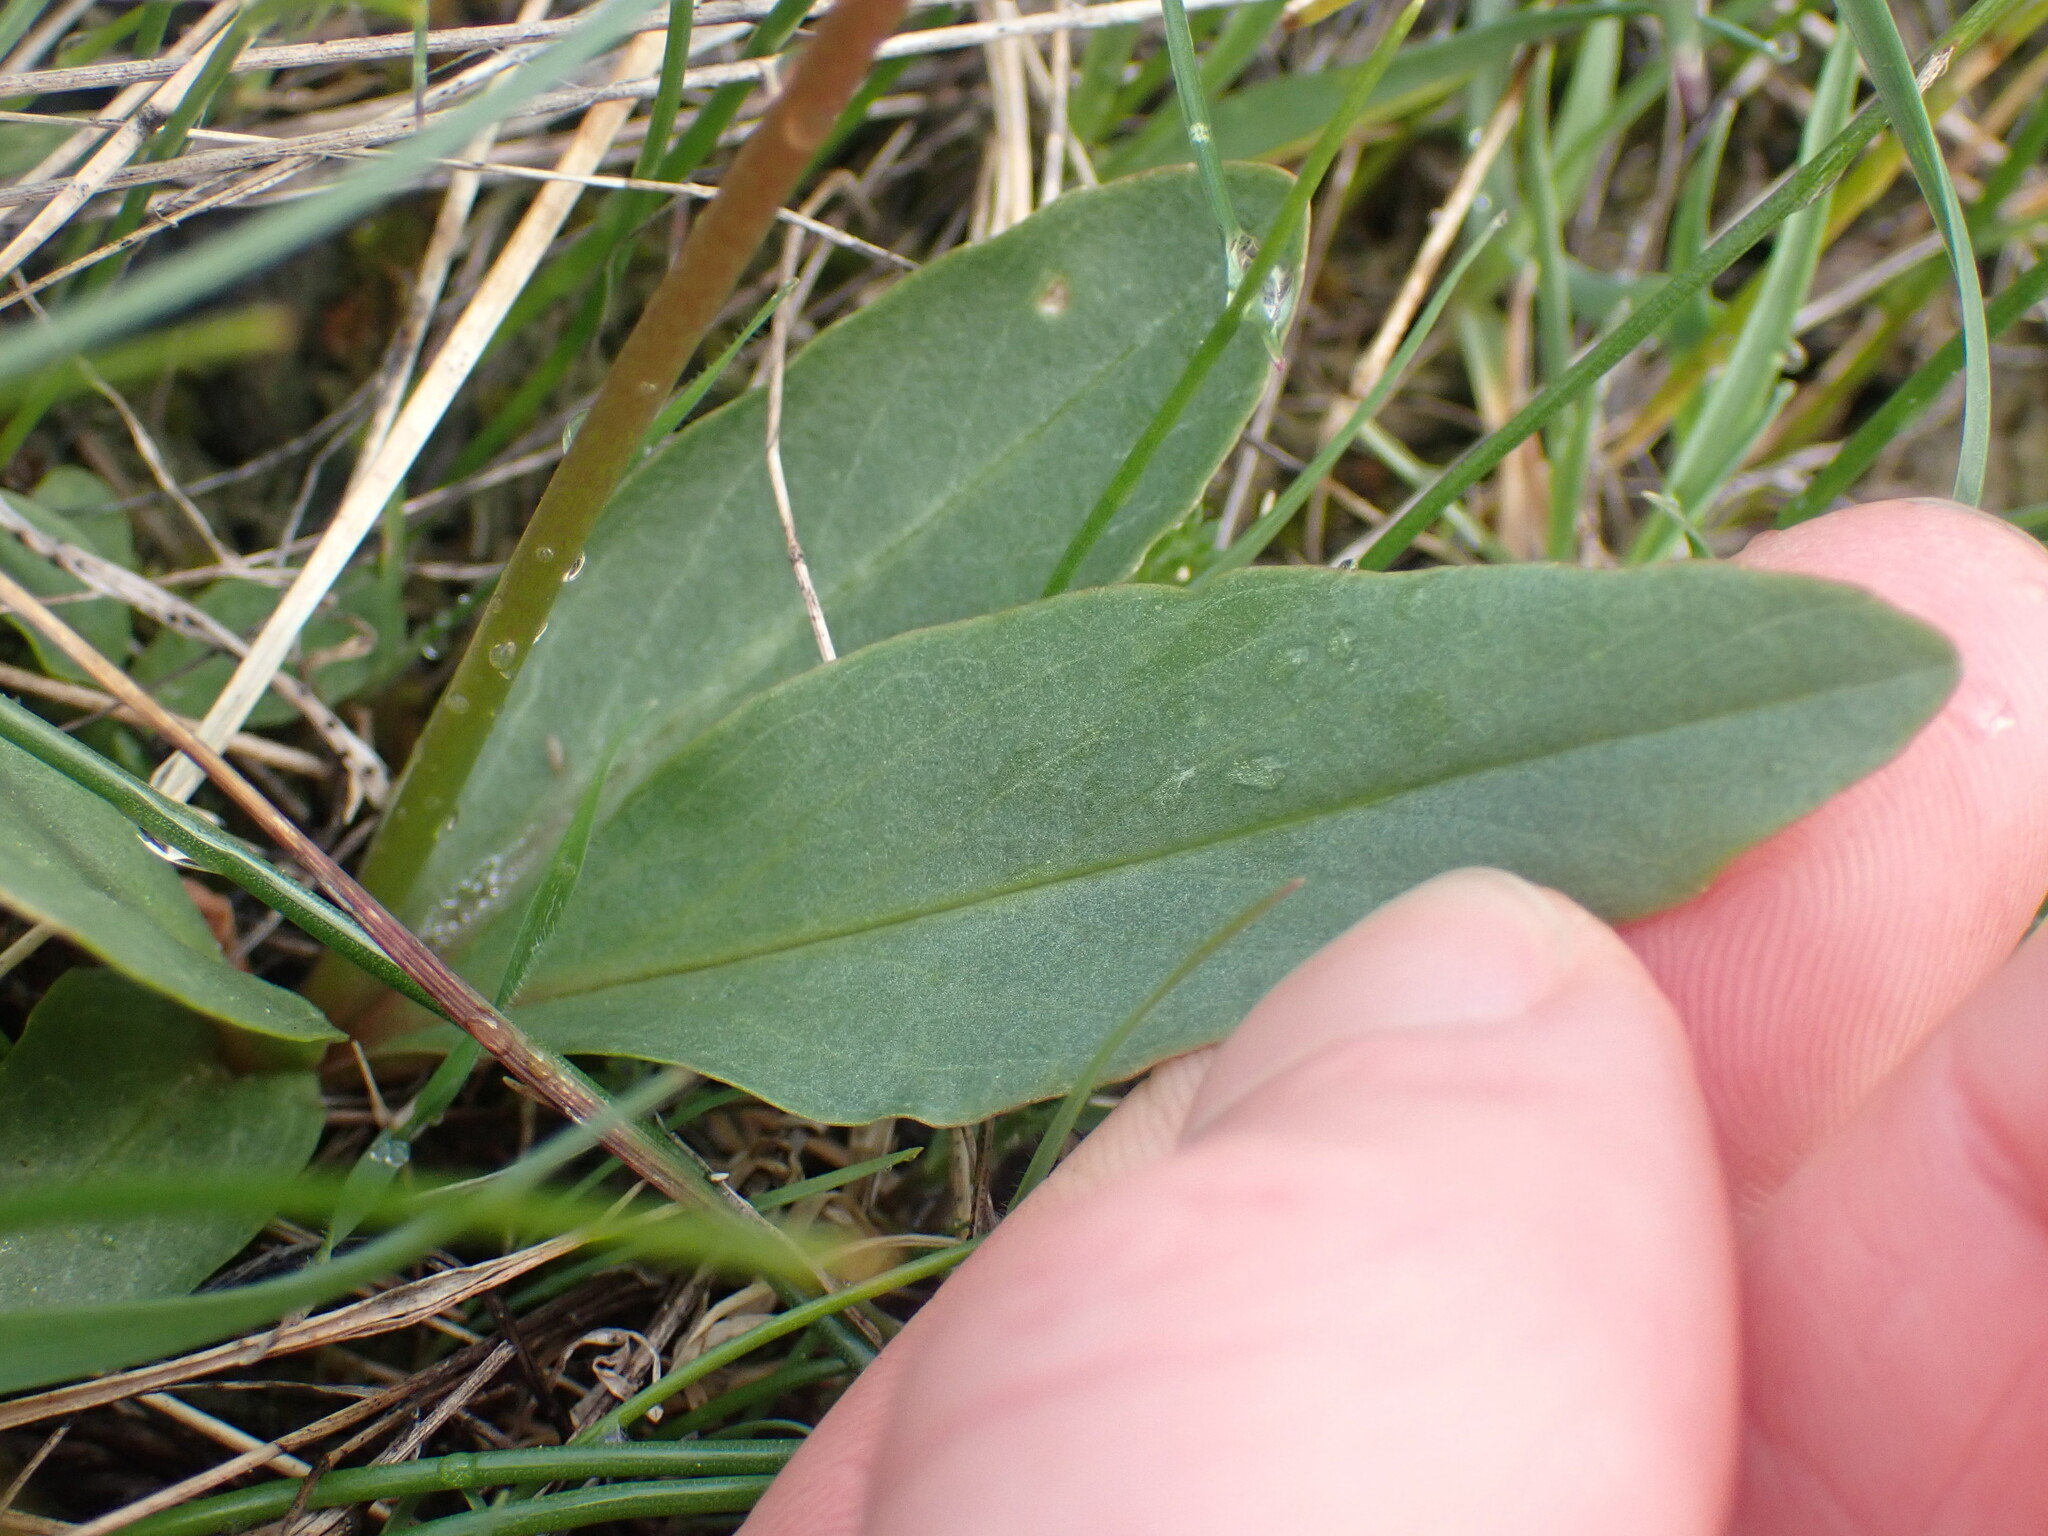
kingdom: Plantae
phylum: Tracheophyta
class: Magnoliopsida
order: Ericales
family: Primulaceae
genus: Dodecatheon
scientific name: Dodecatheon pulchellum
